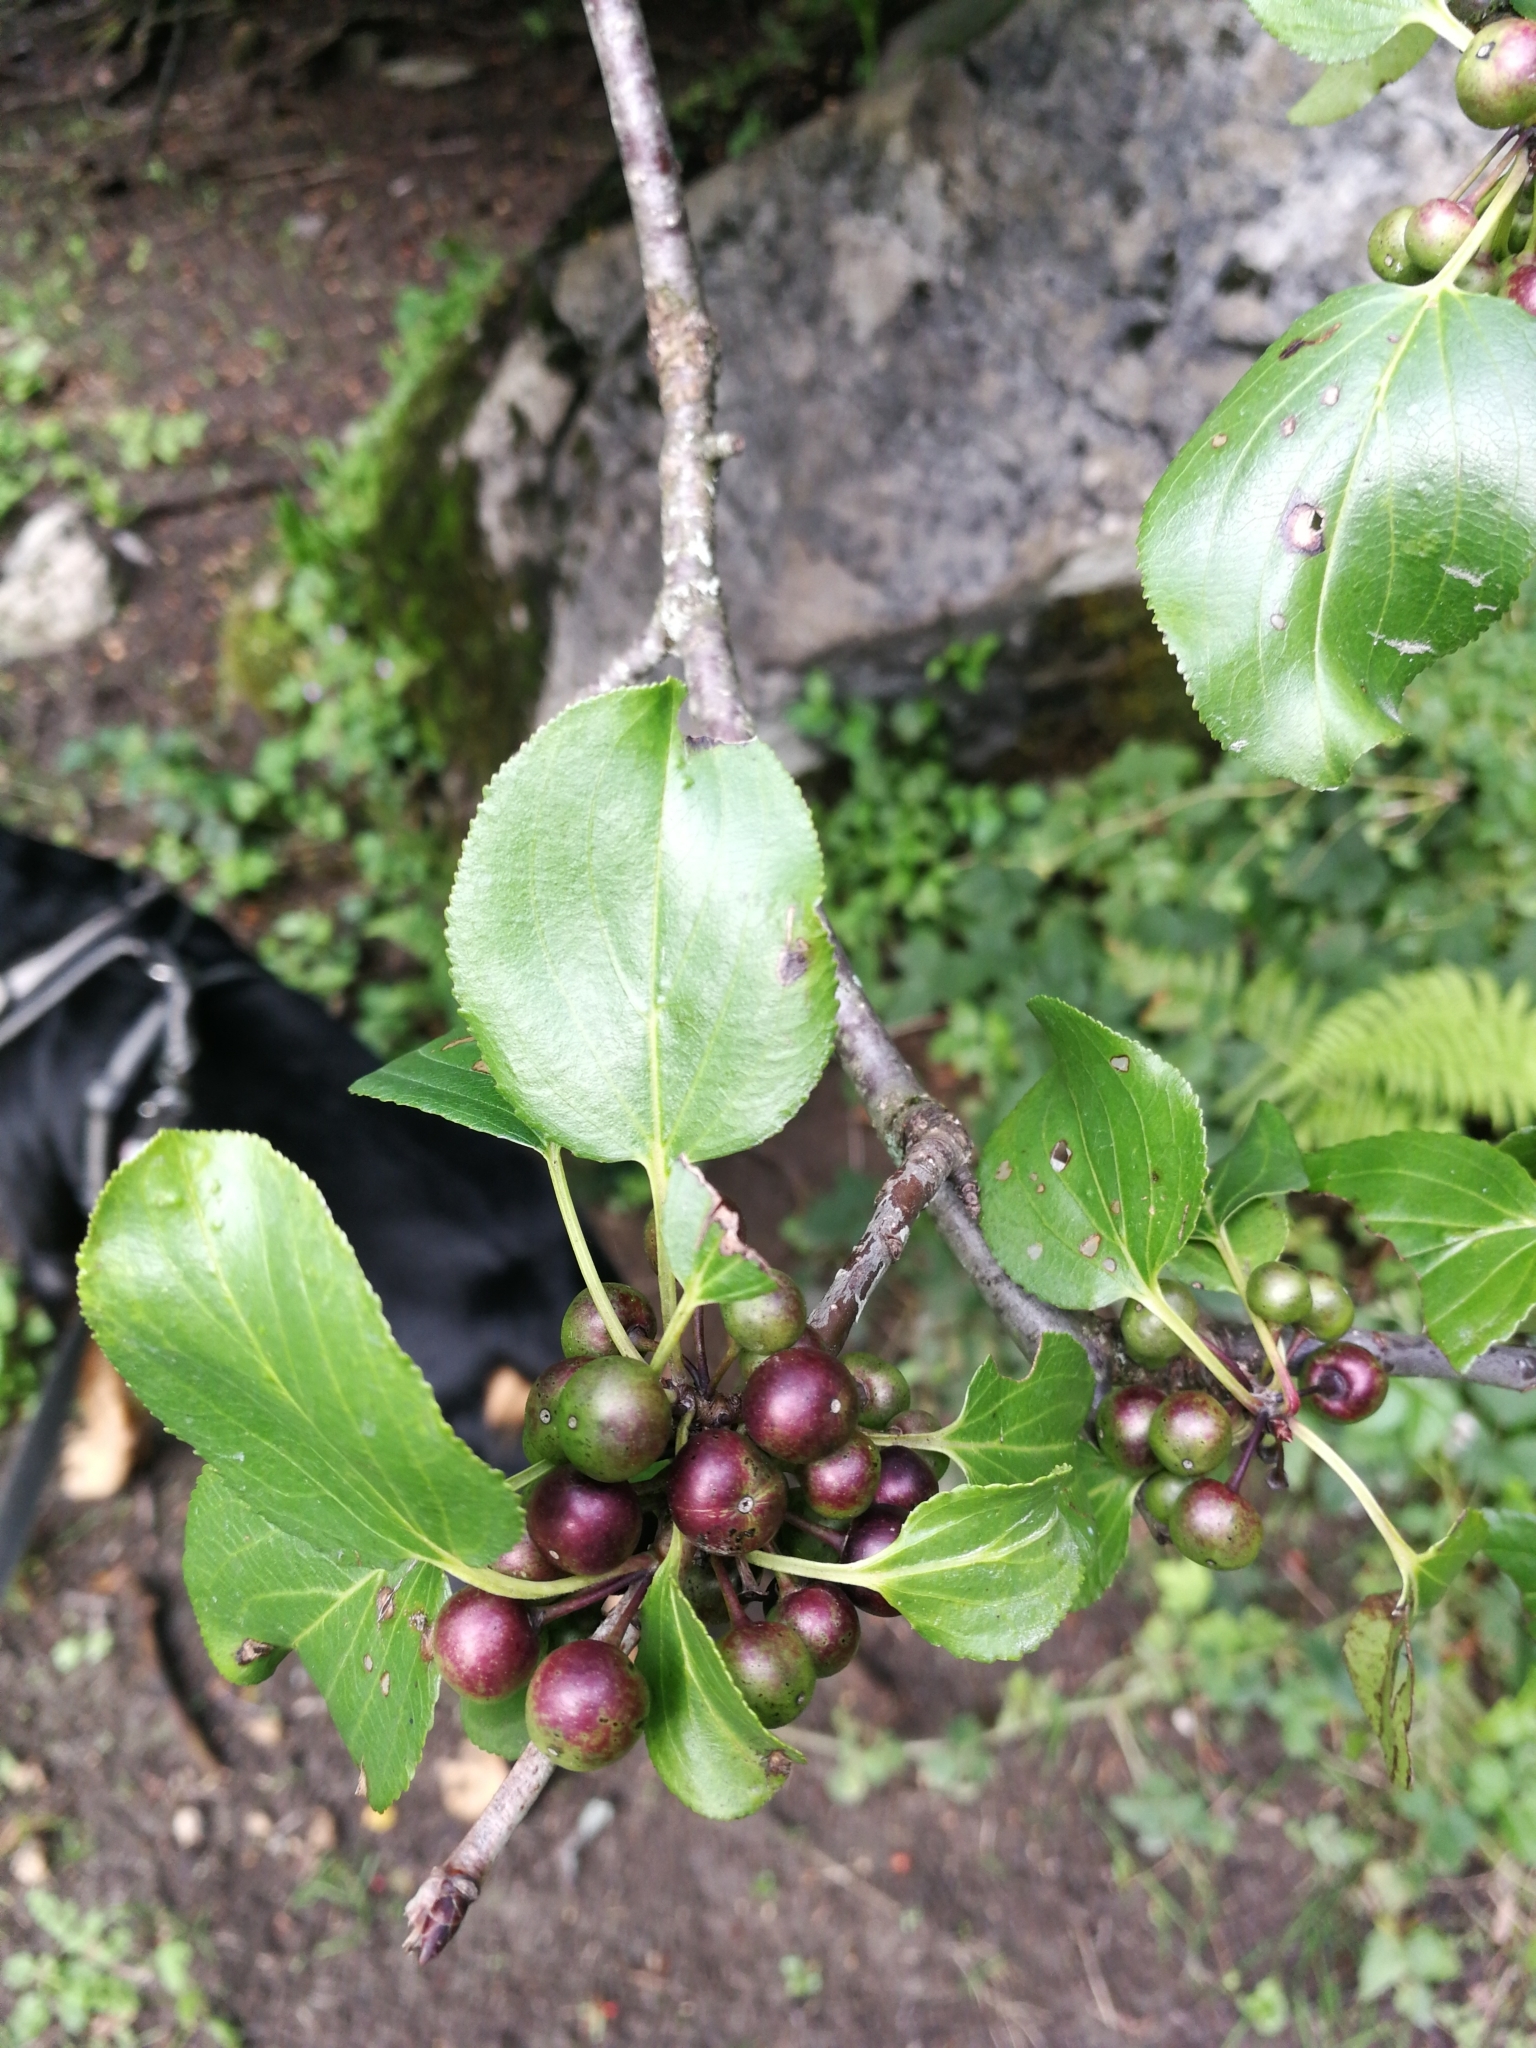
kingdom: Plantae
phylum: Tracheophyta
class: Magnoliopsida
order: Rosales
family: Rhamnaceae
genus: Rhamnus
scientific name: Rhamnus cathartica
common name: Common buckthorn
